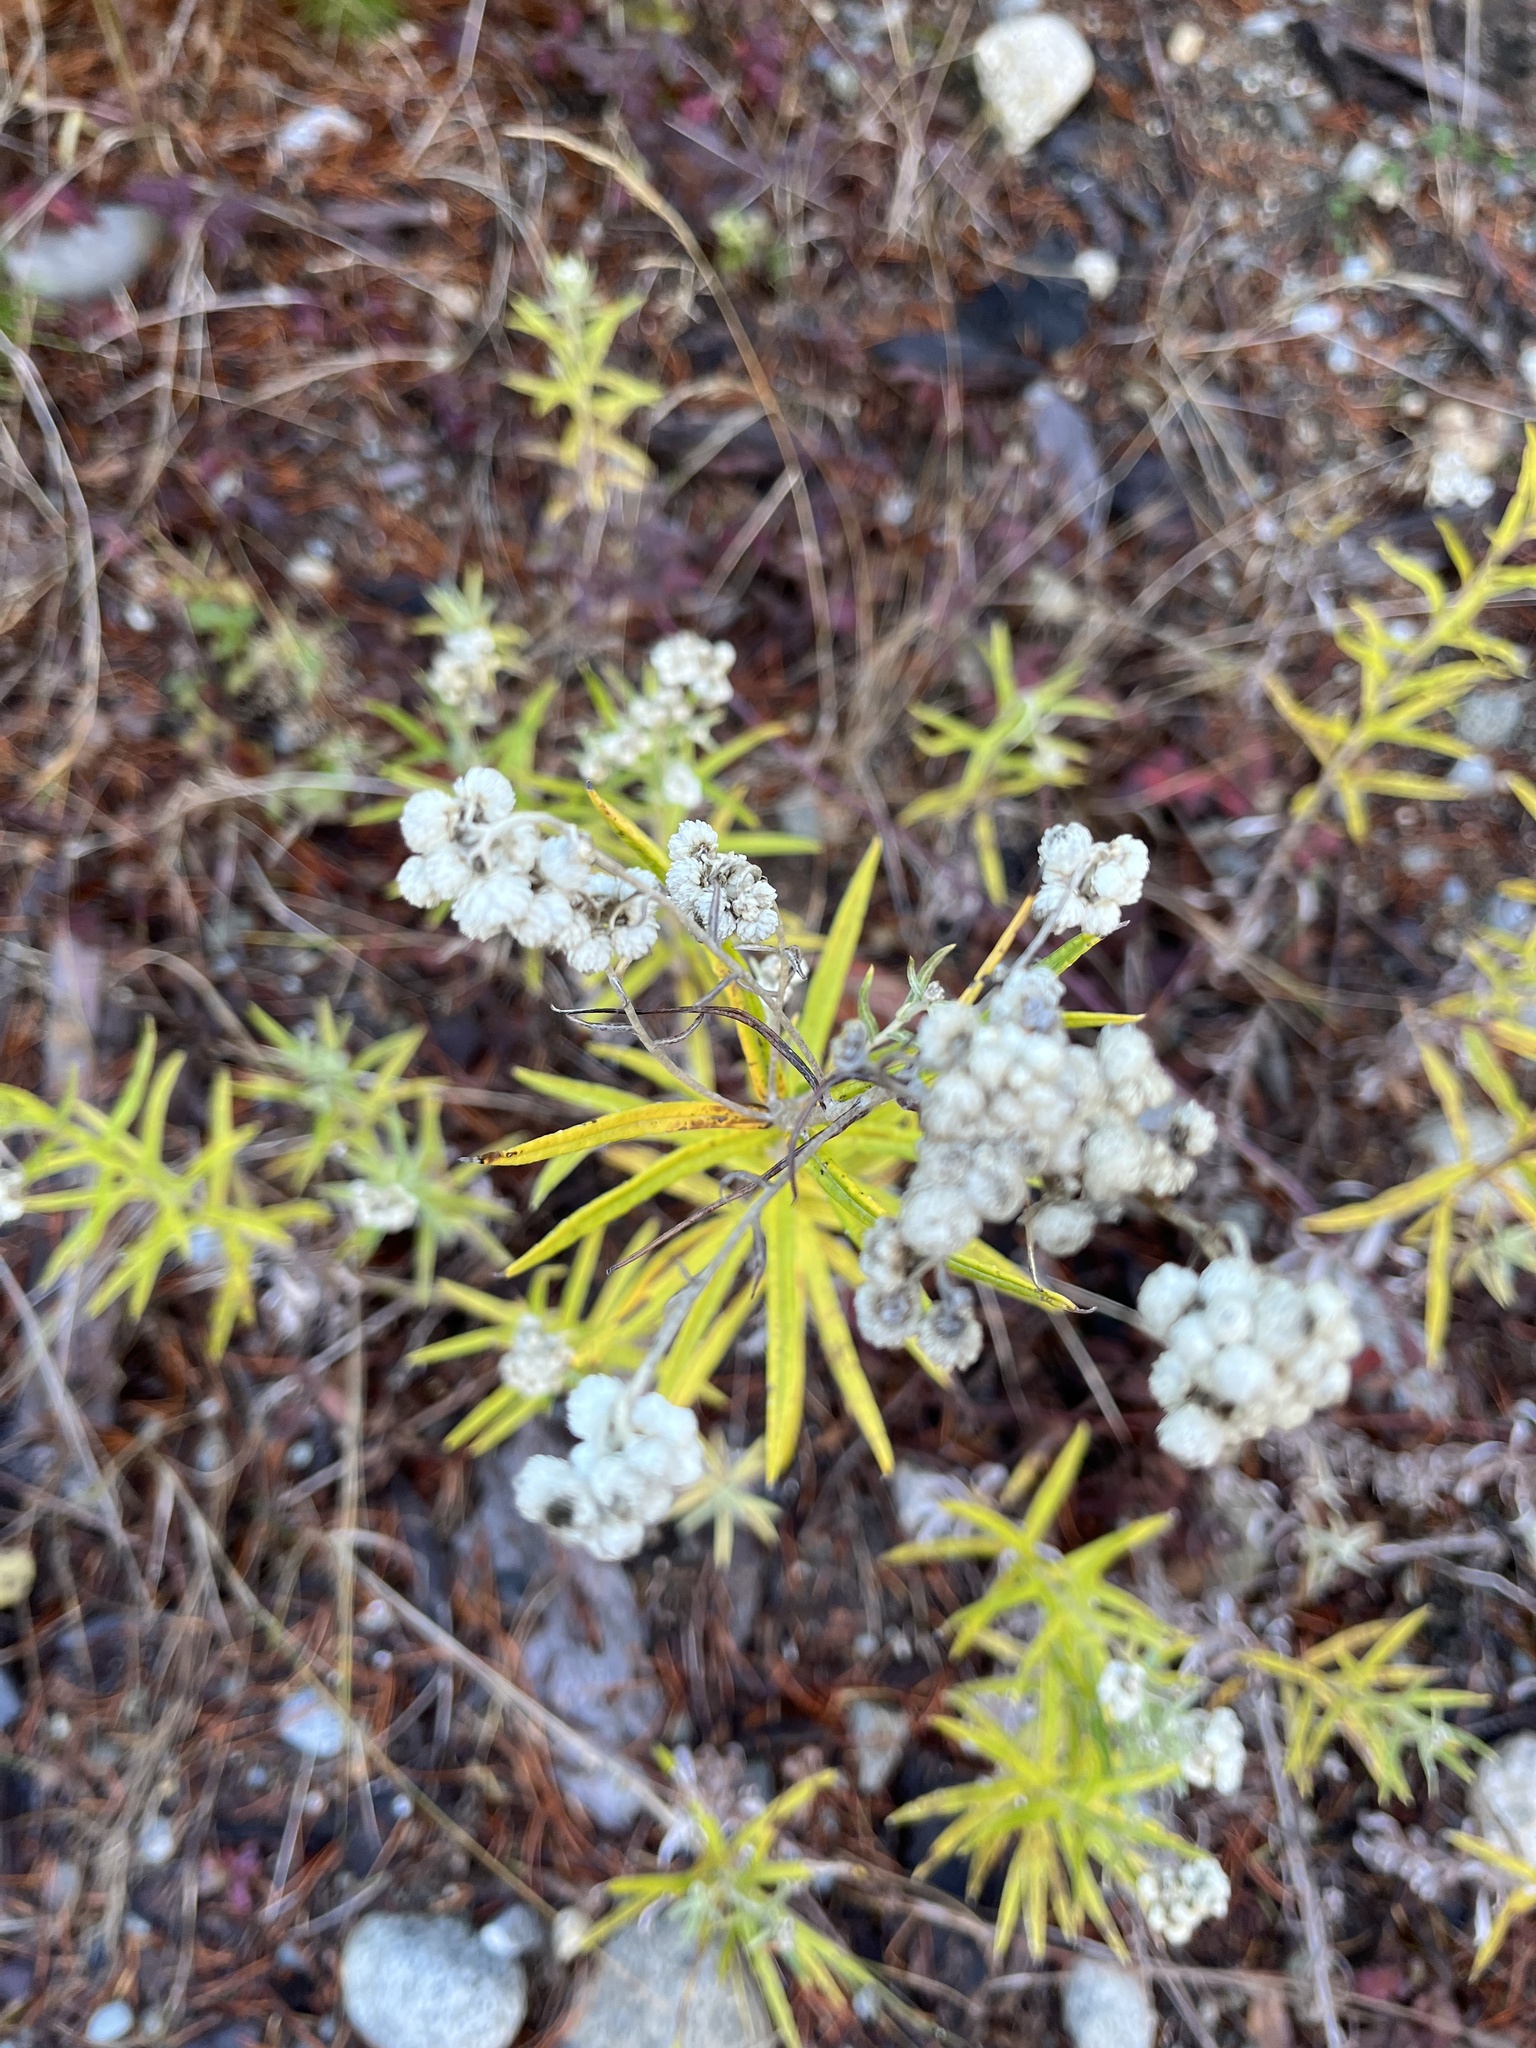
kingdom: Plantae
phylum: Tracheophyta
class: Magnoliopsida
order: Asterales
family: Asteraceae
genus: Anaphalis
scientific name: Anaphalis margaritacea
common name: Pearly everlasting
